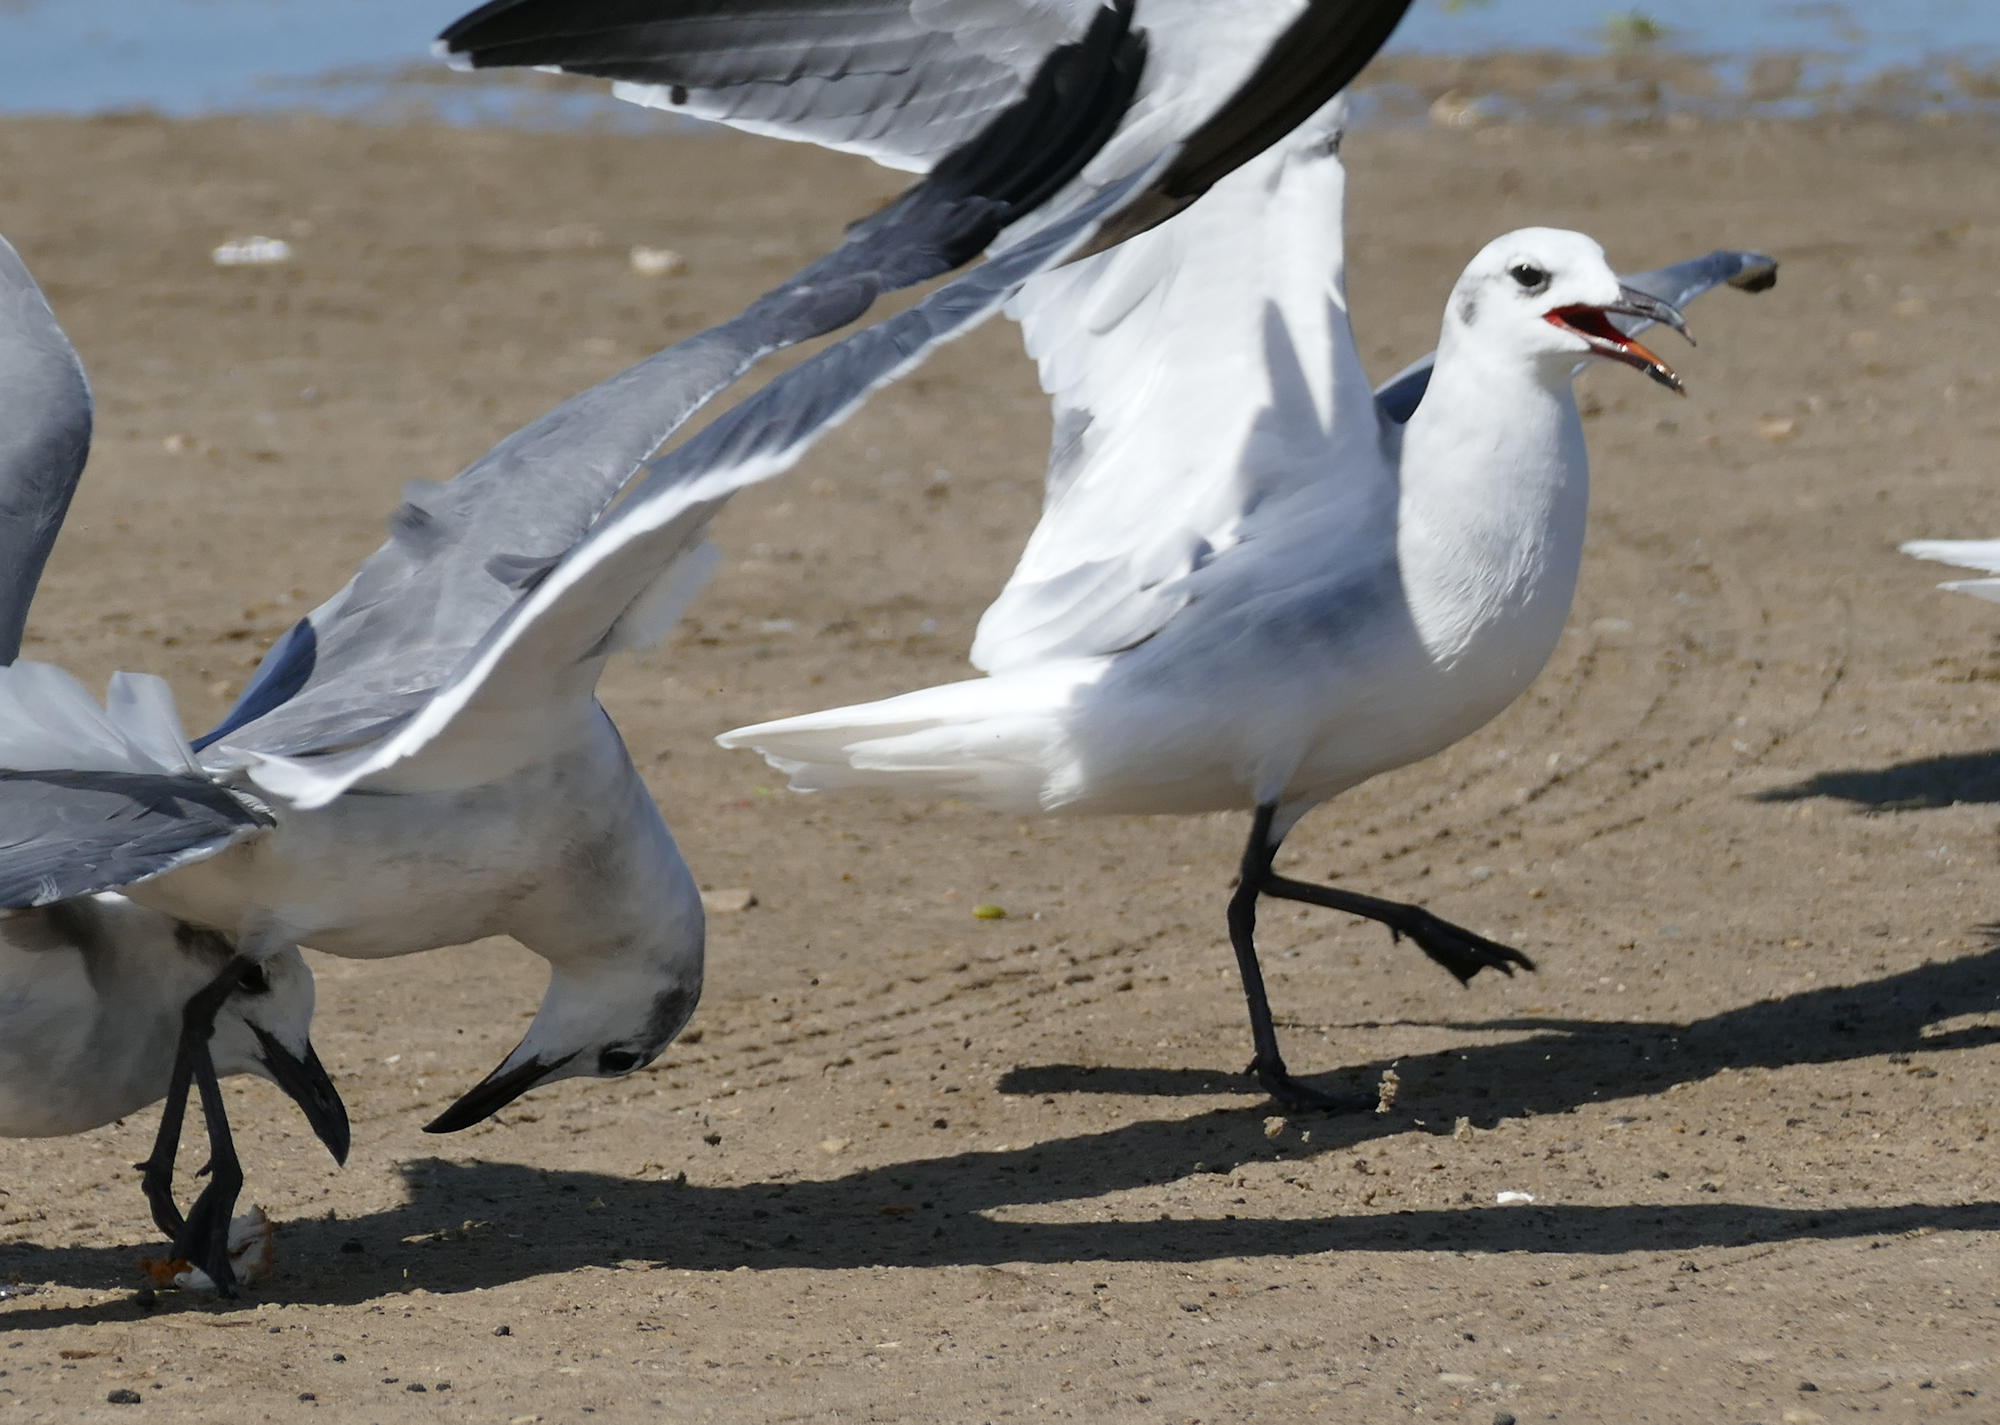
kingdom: Animalia
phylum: Chordata
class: Aves
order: Charadriiformes
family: Laridae
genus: Leucophaeus
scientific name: Leucophaeus atricilla
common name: Laughing gull
